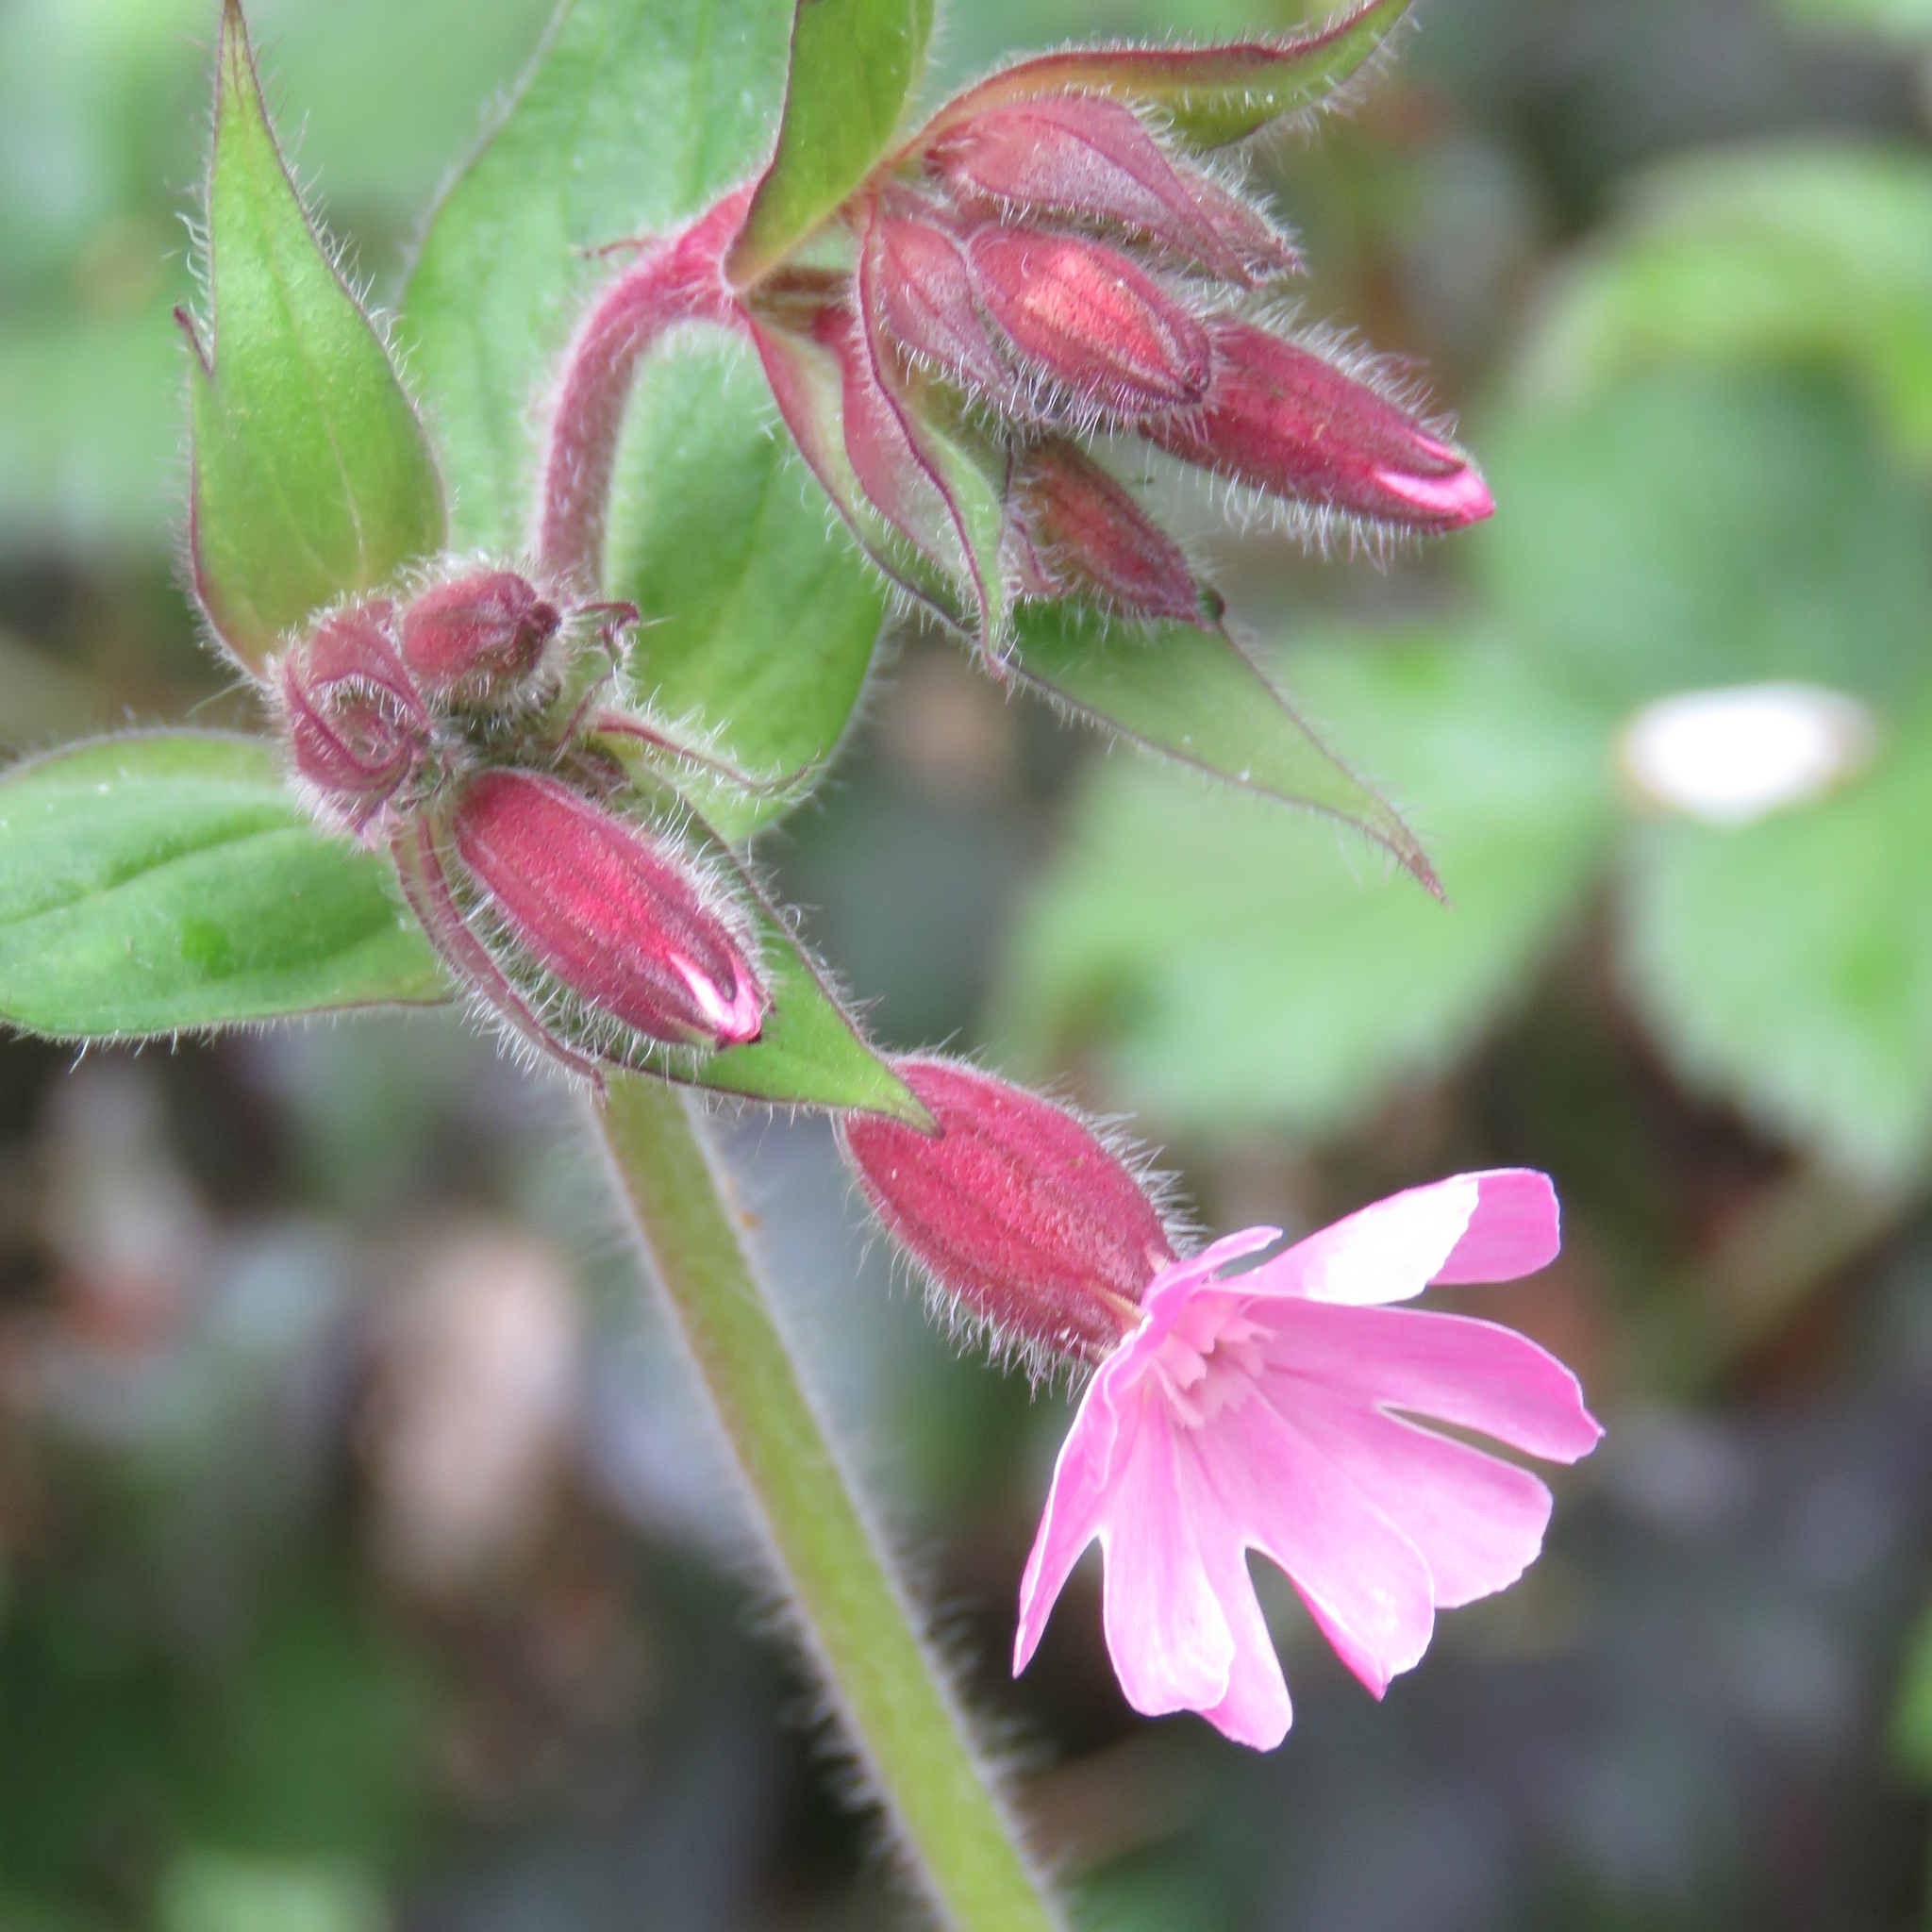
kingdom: Plantae
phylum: Tracheophyta
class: Magnoliopsida
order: Caryophyllales
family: Caryophyllaceae
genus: Silene
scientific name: Silene dioica
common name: Red campion
